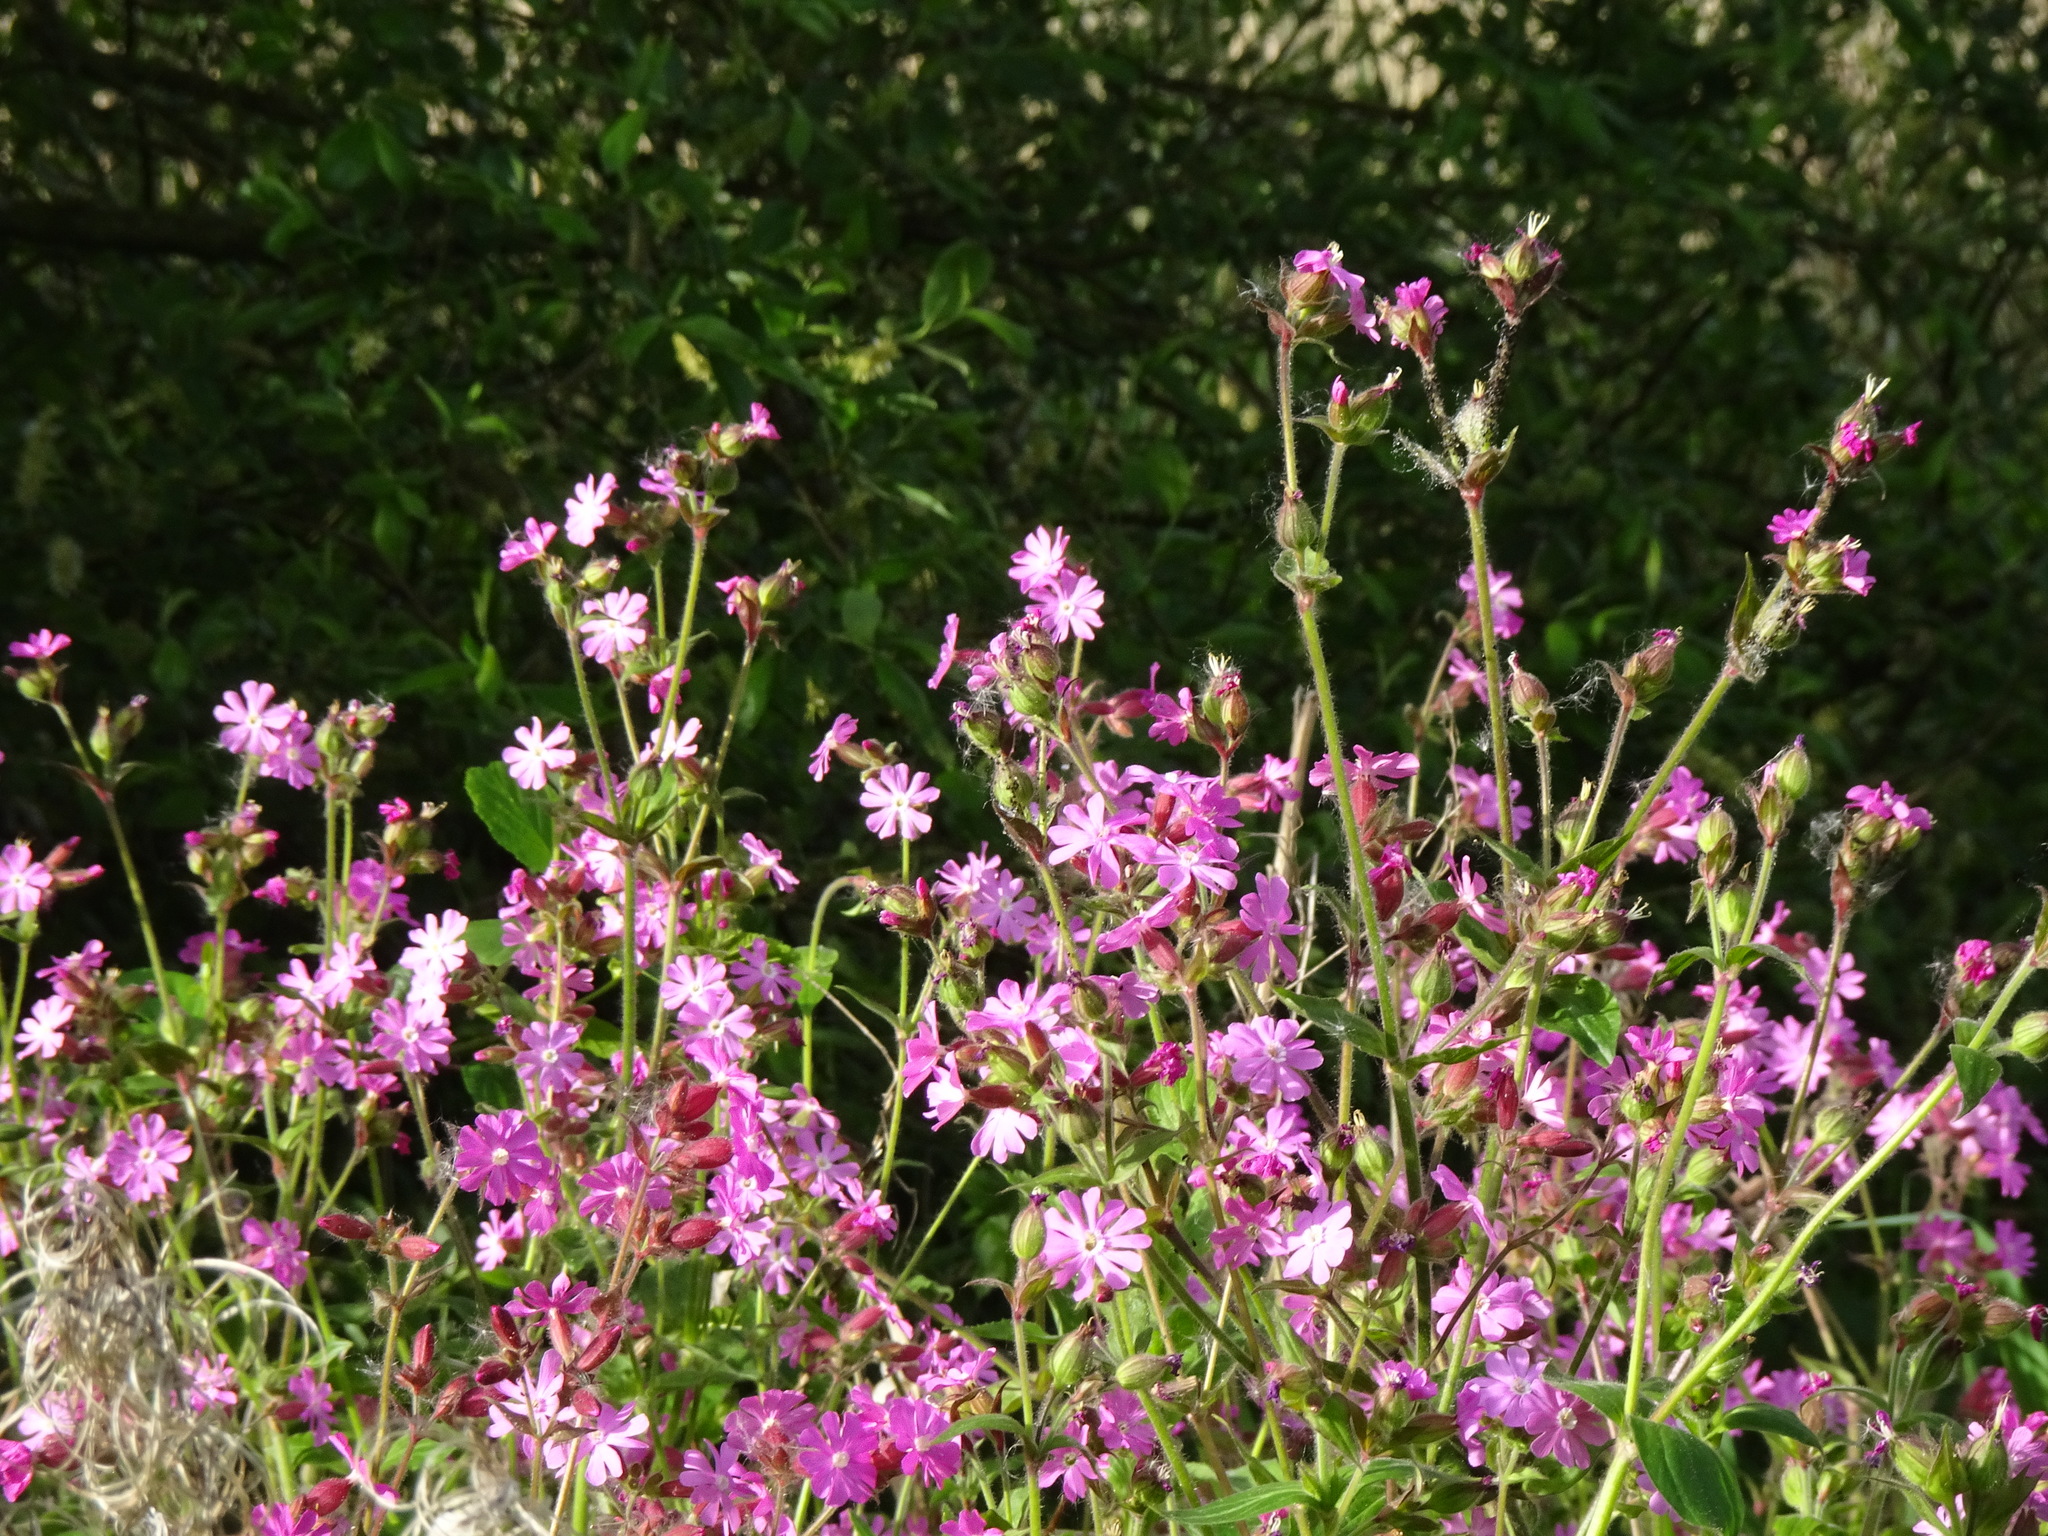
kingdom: Plantae
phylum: Tracheophyta
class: Magnoliopsida
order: Caryophyllales
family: Caryophyllaceae
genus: Silene
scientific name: Silene dioica
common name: Red campion
